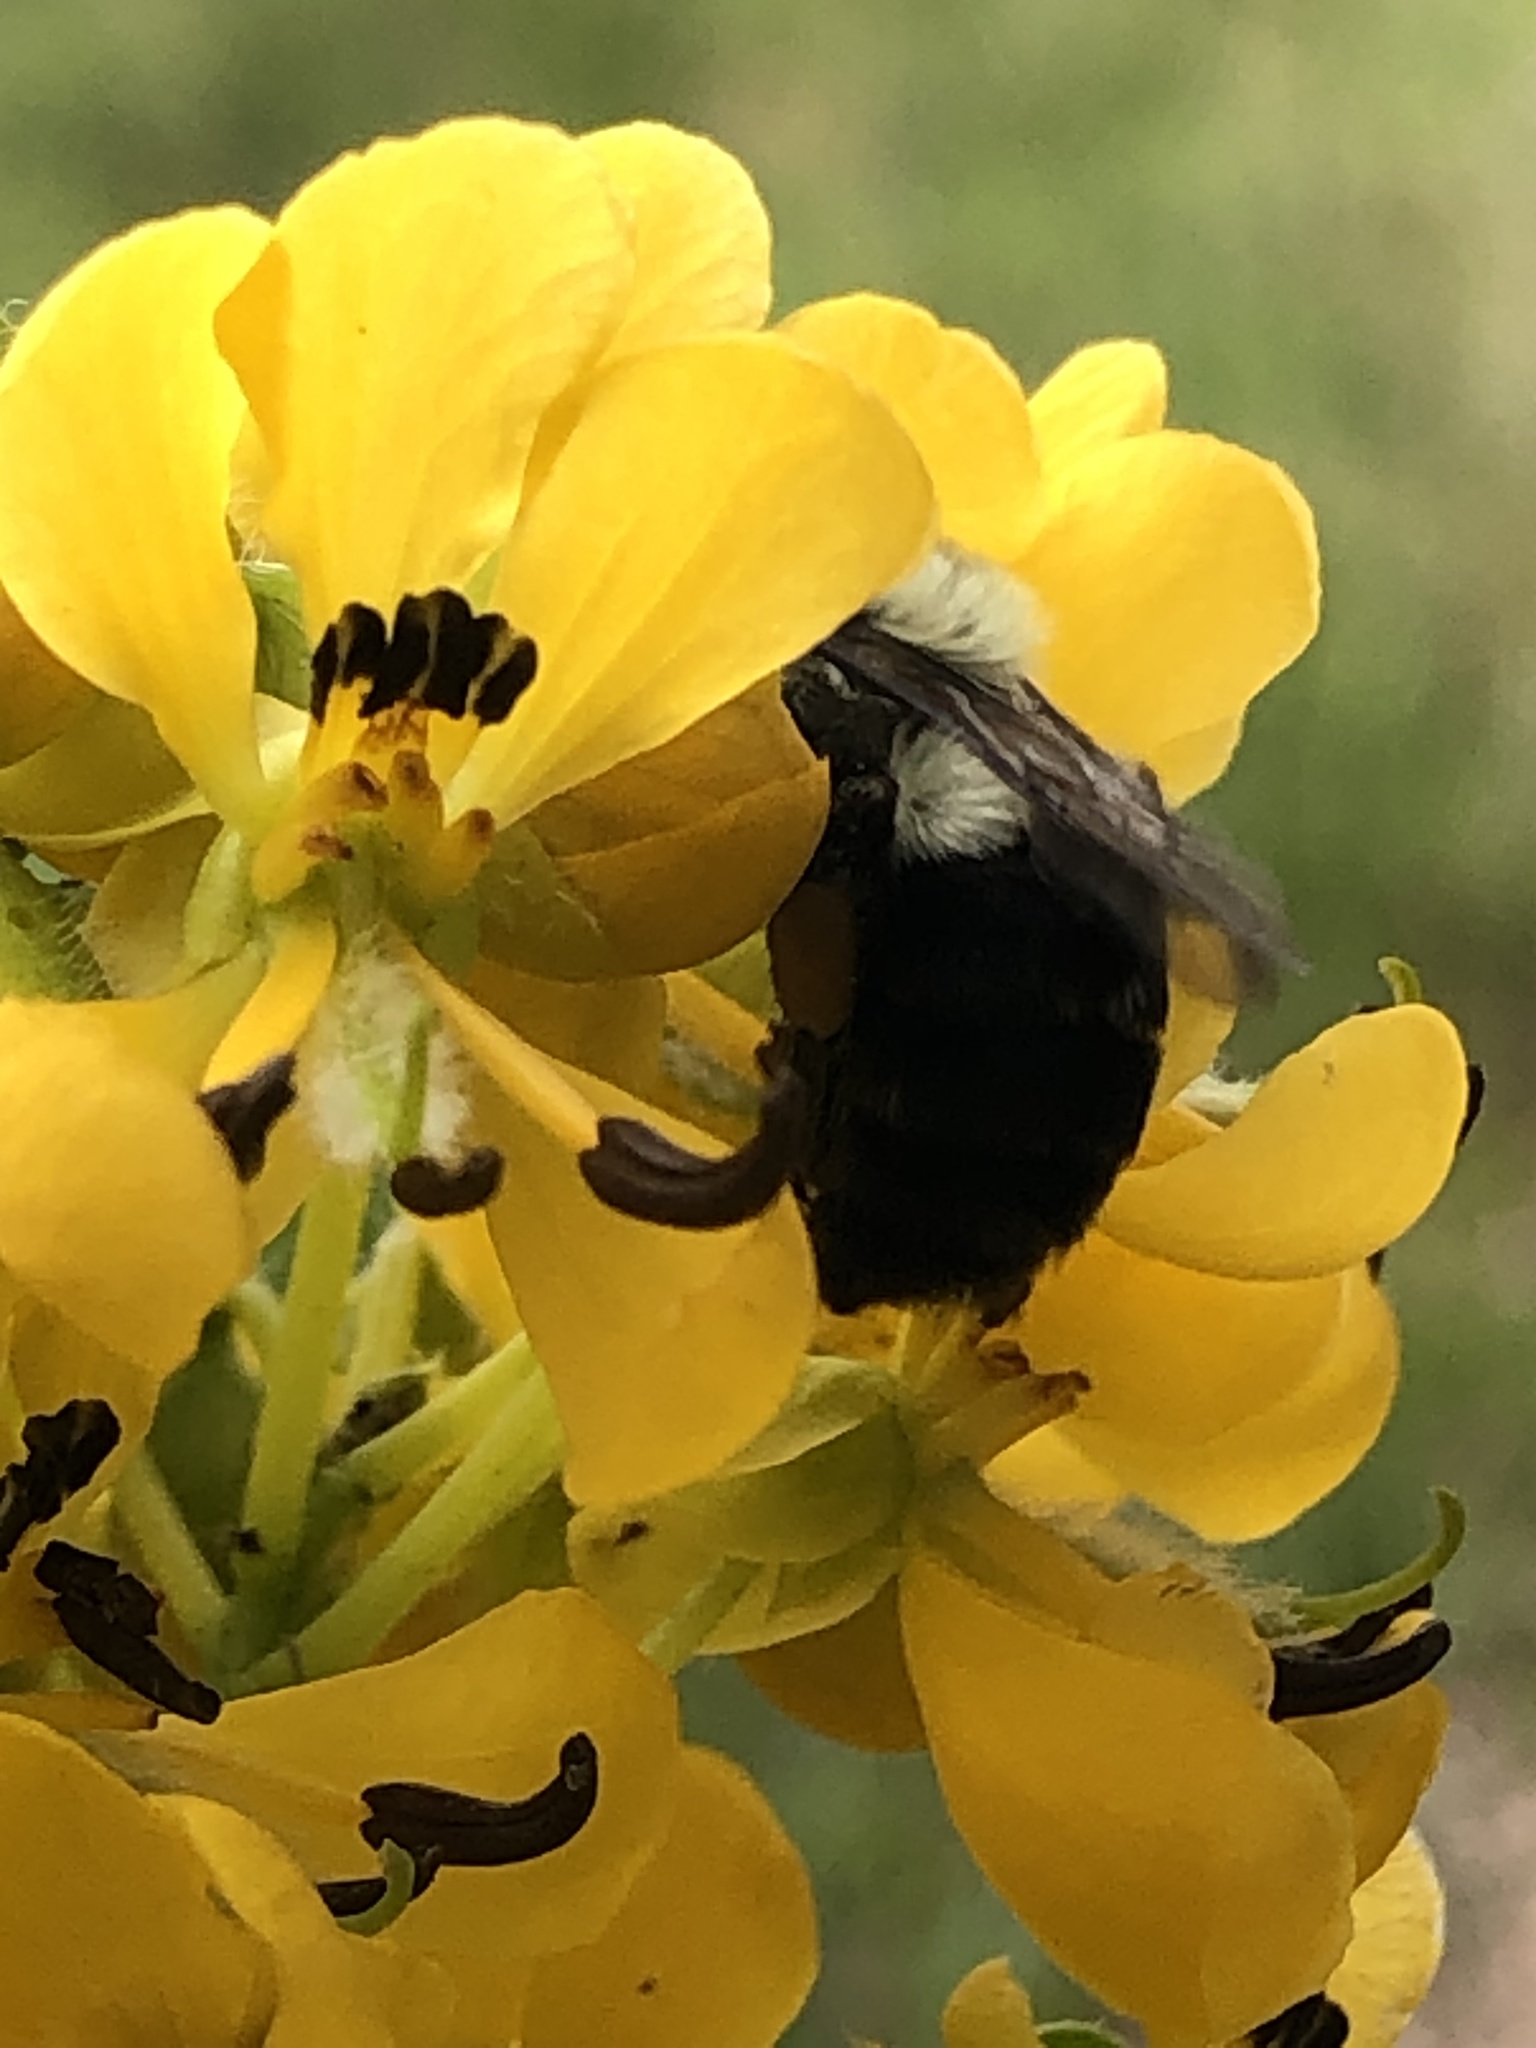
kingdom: Animalia
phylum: Arthropoda
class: Insecta
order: Hymenoptera
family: Apidae
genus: Bombus
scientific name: Bombus impatiens
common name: Common eastern bumble bee
